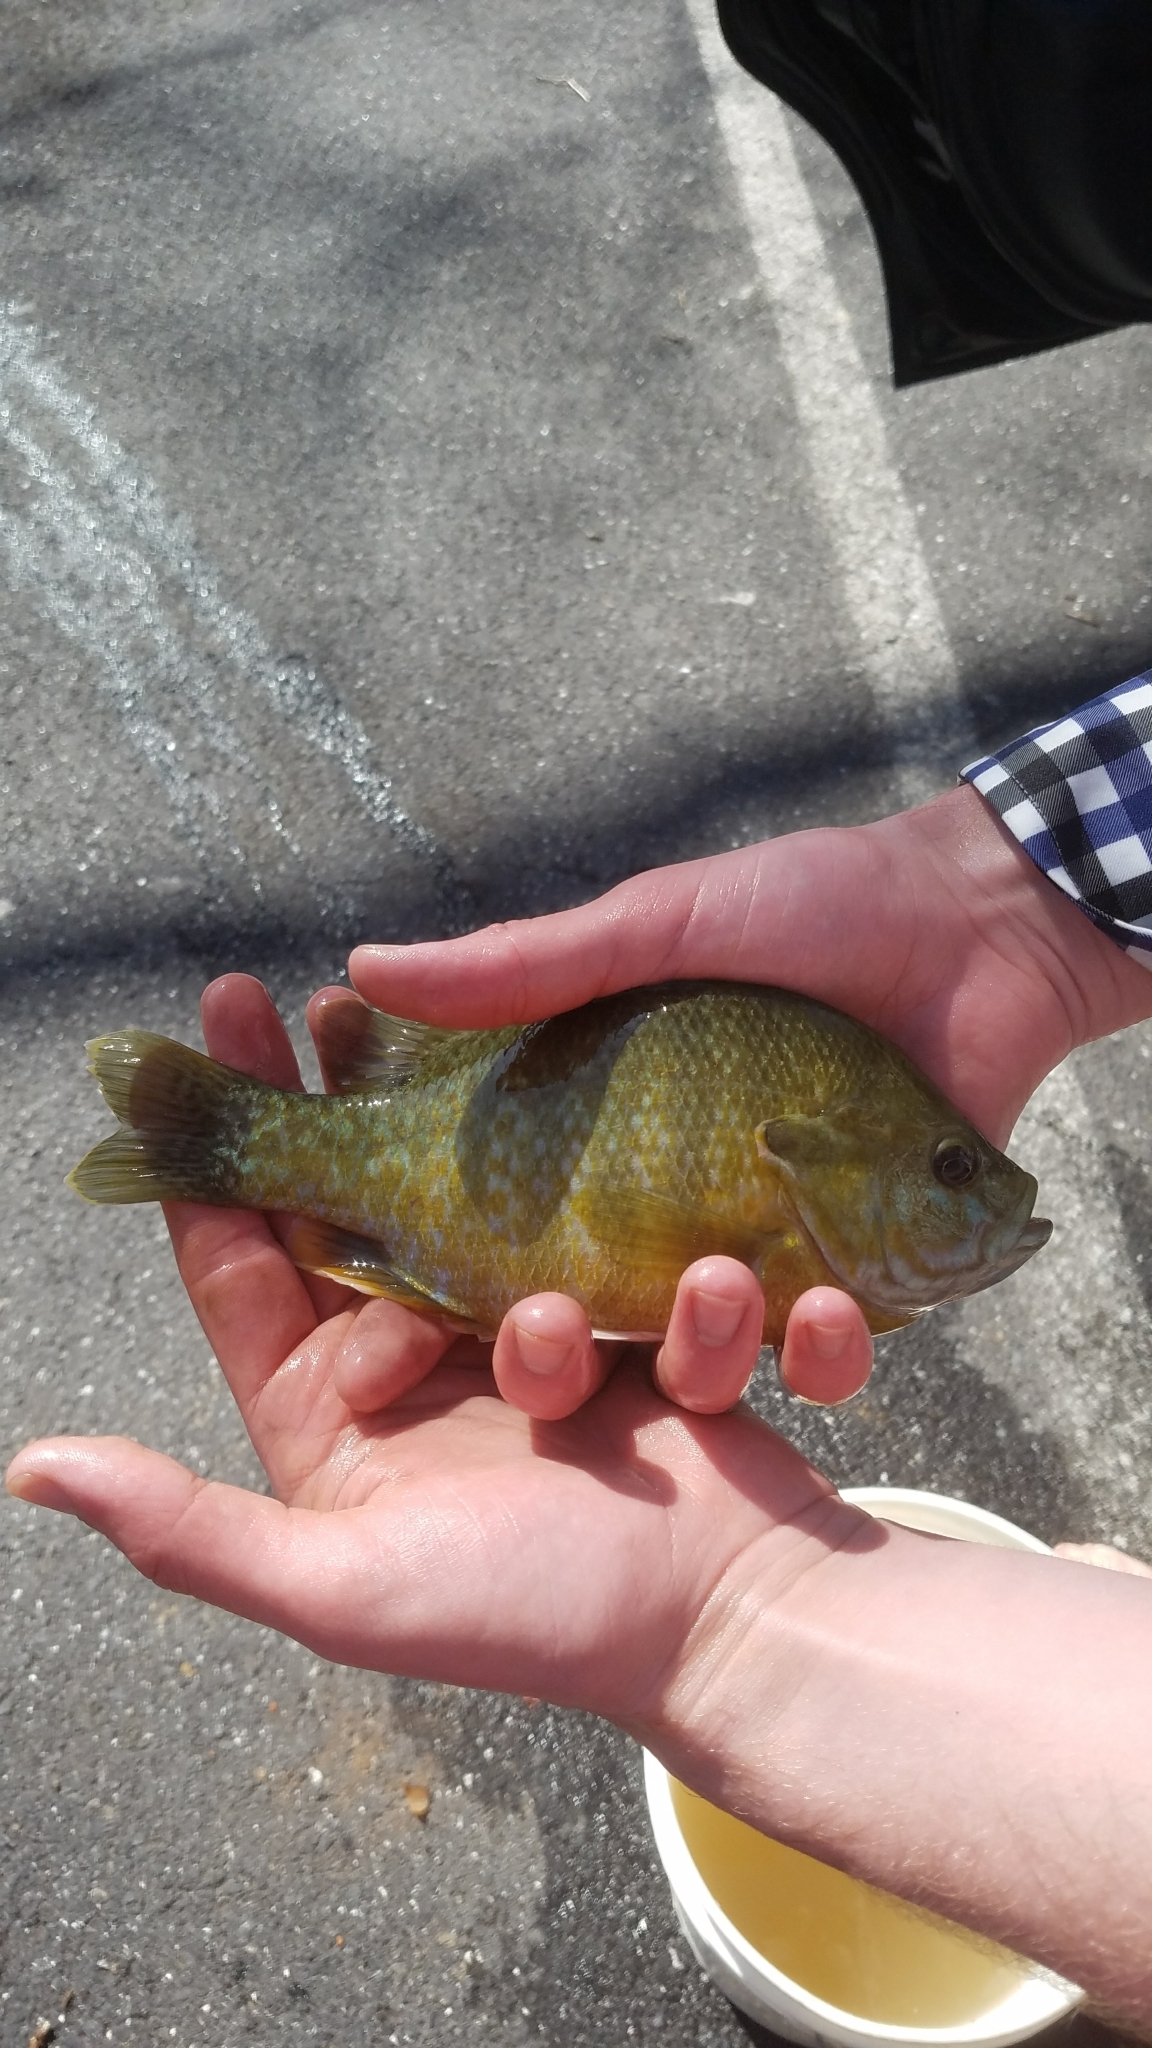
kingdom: Animalia
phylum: Chordata
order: Perciformes
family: Centrarchidae
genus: Lepomis
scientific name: Lepomis
